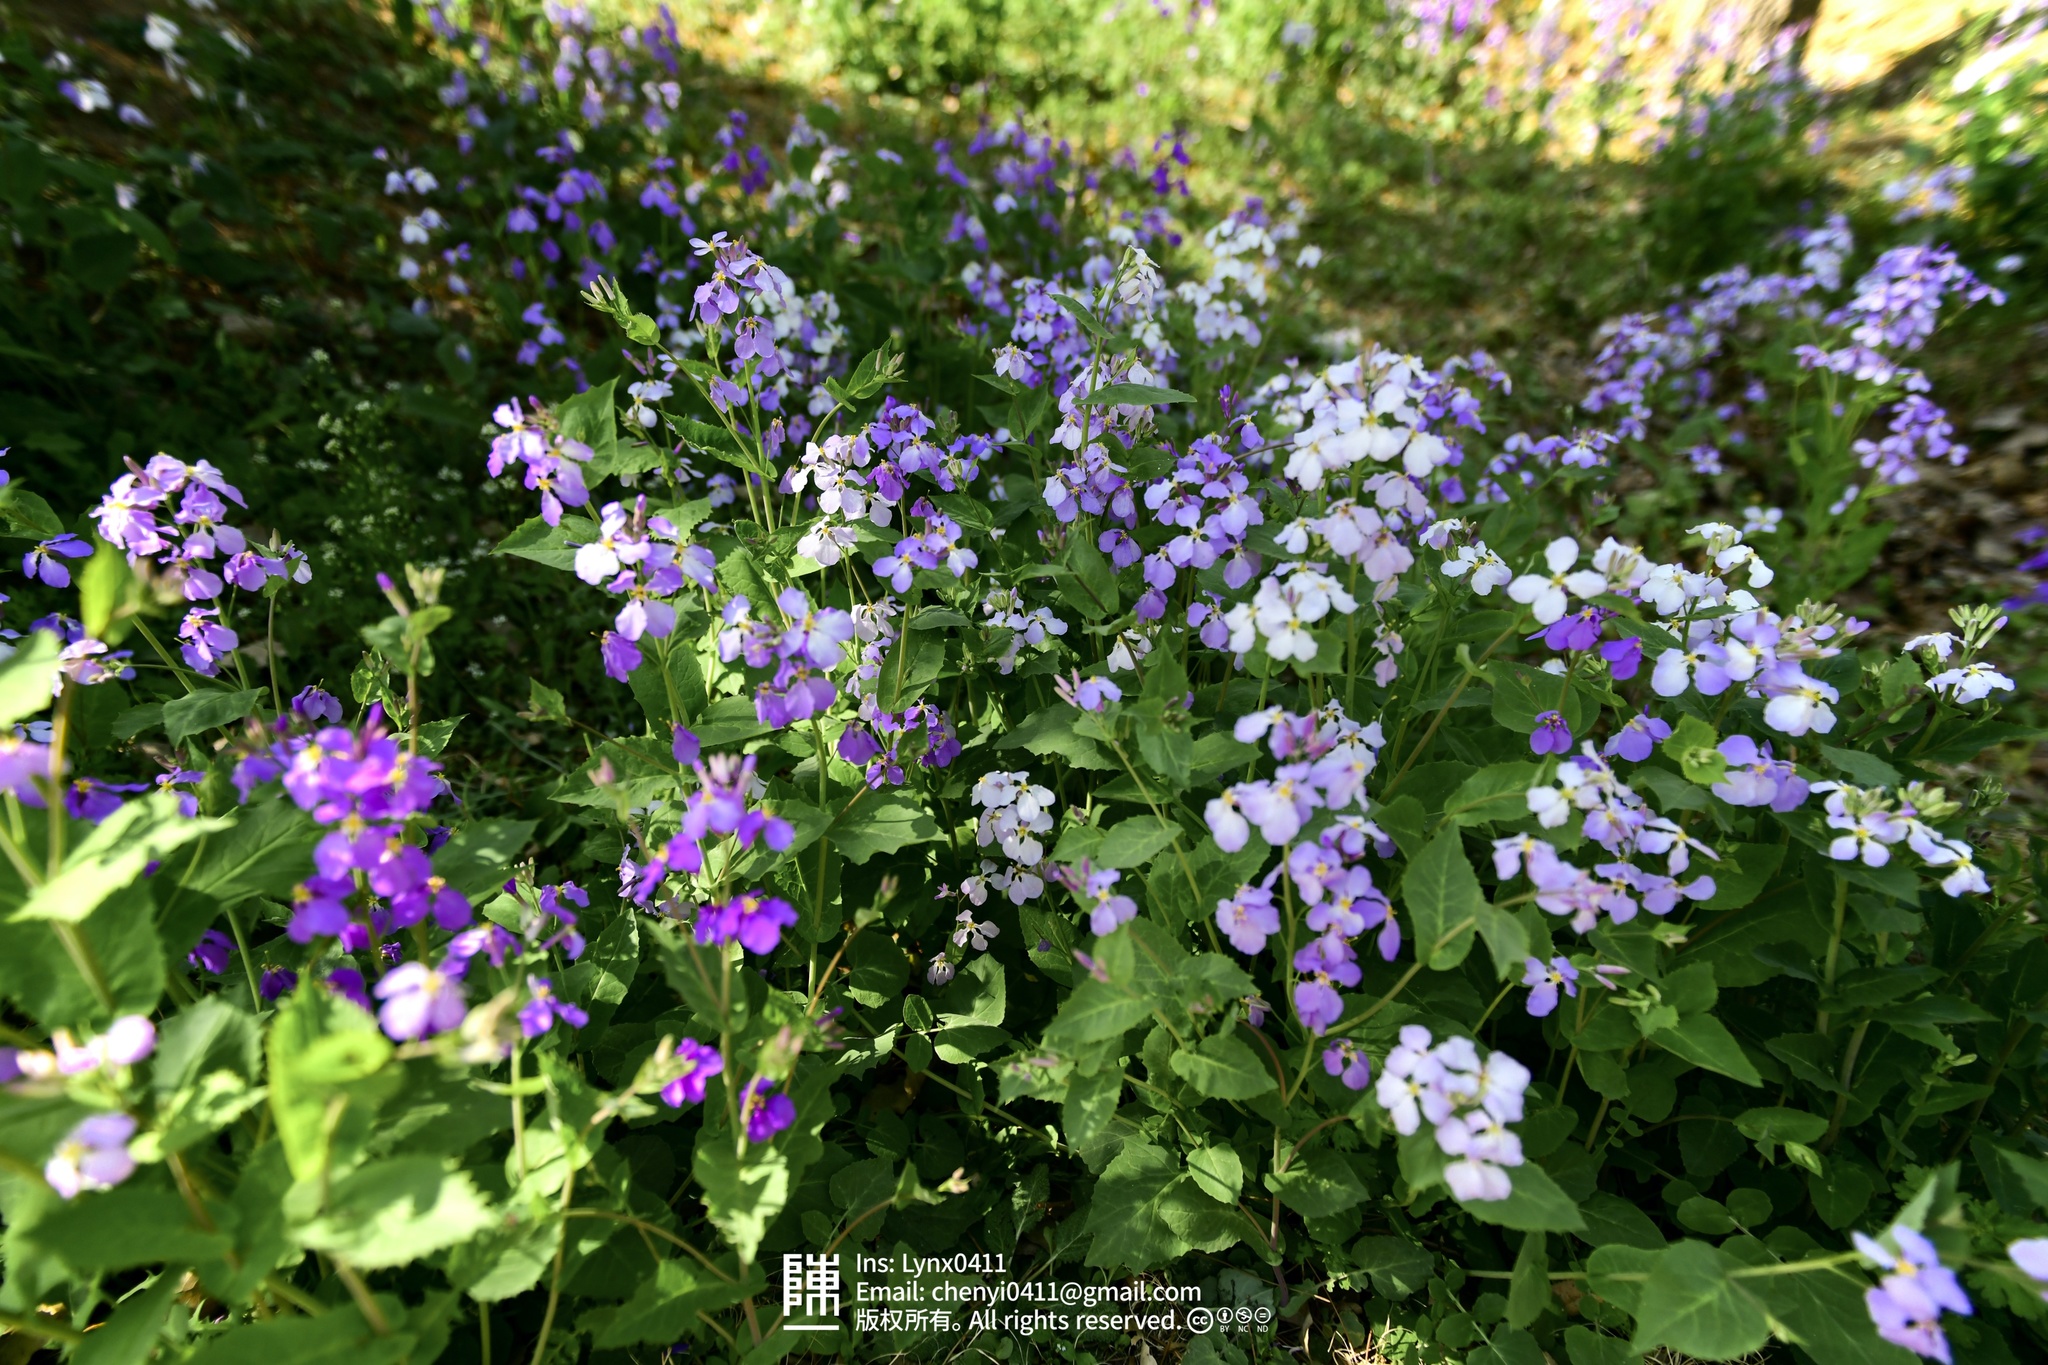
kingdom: Plantae
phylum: Tracheophyta
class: Magnoliopsida
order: Brassicales
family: Brassicaceae
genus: Orychophragmus
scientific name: Orychophragmus violaceus
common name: Mustard
